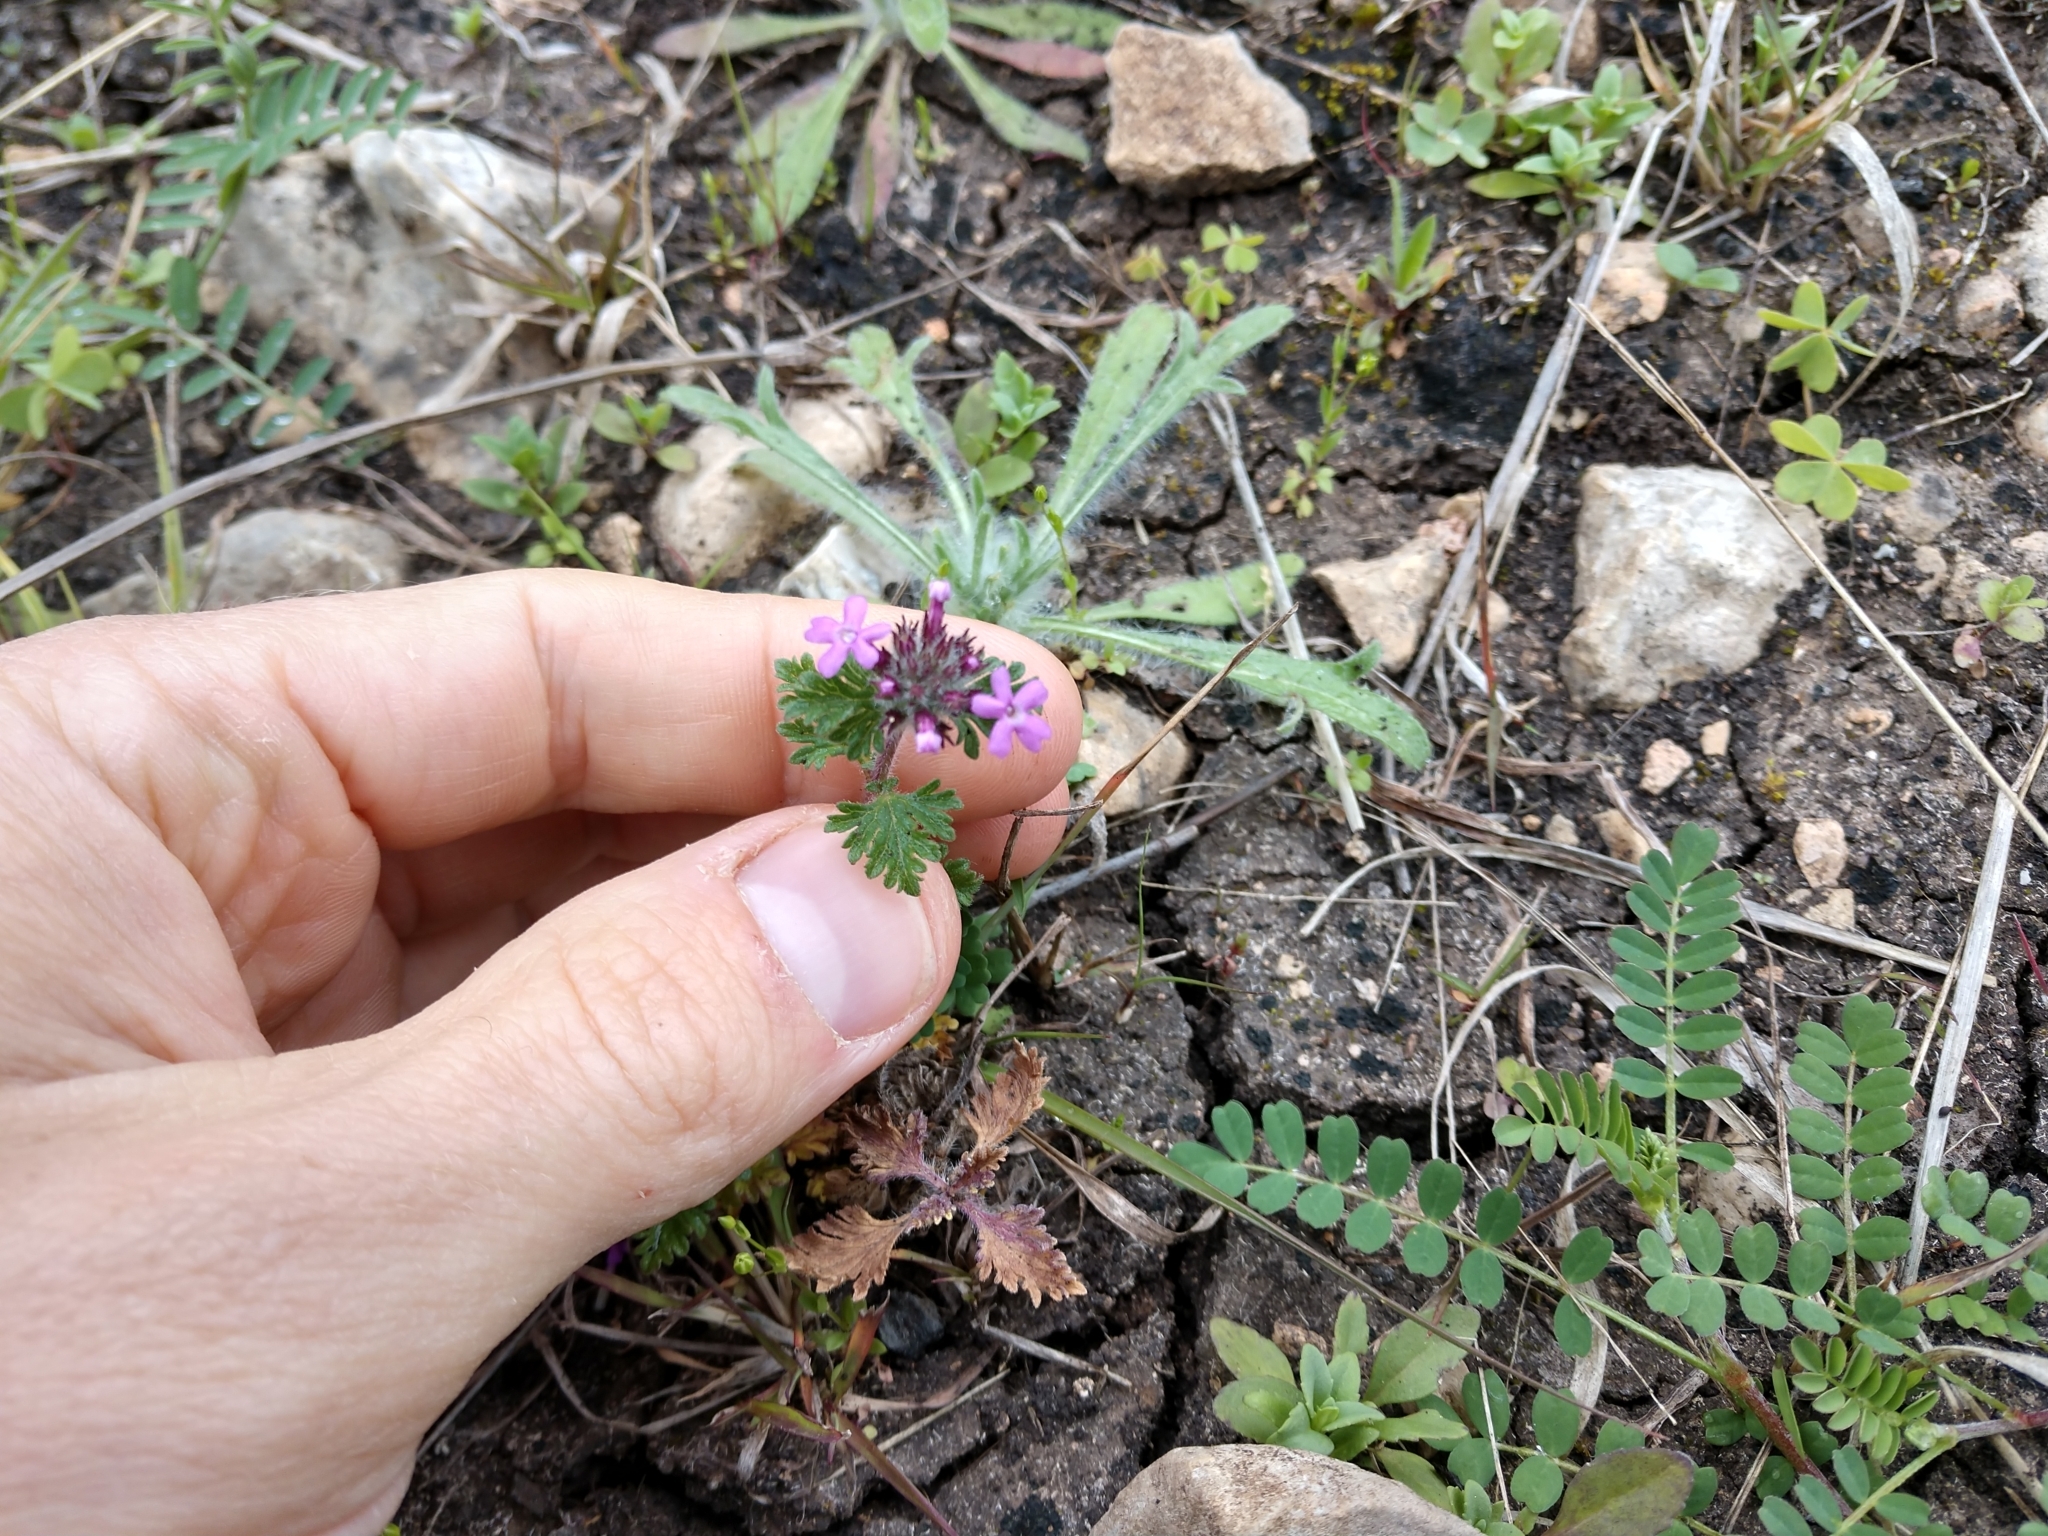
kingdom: Plantae
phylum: Tracheophyta
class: Magnoliopsida
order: Lamiales
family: Verbenaceae
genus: Verbena
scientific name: Verbena pumila
